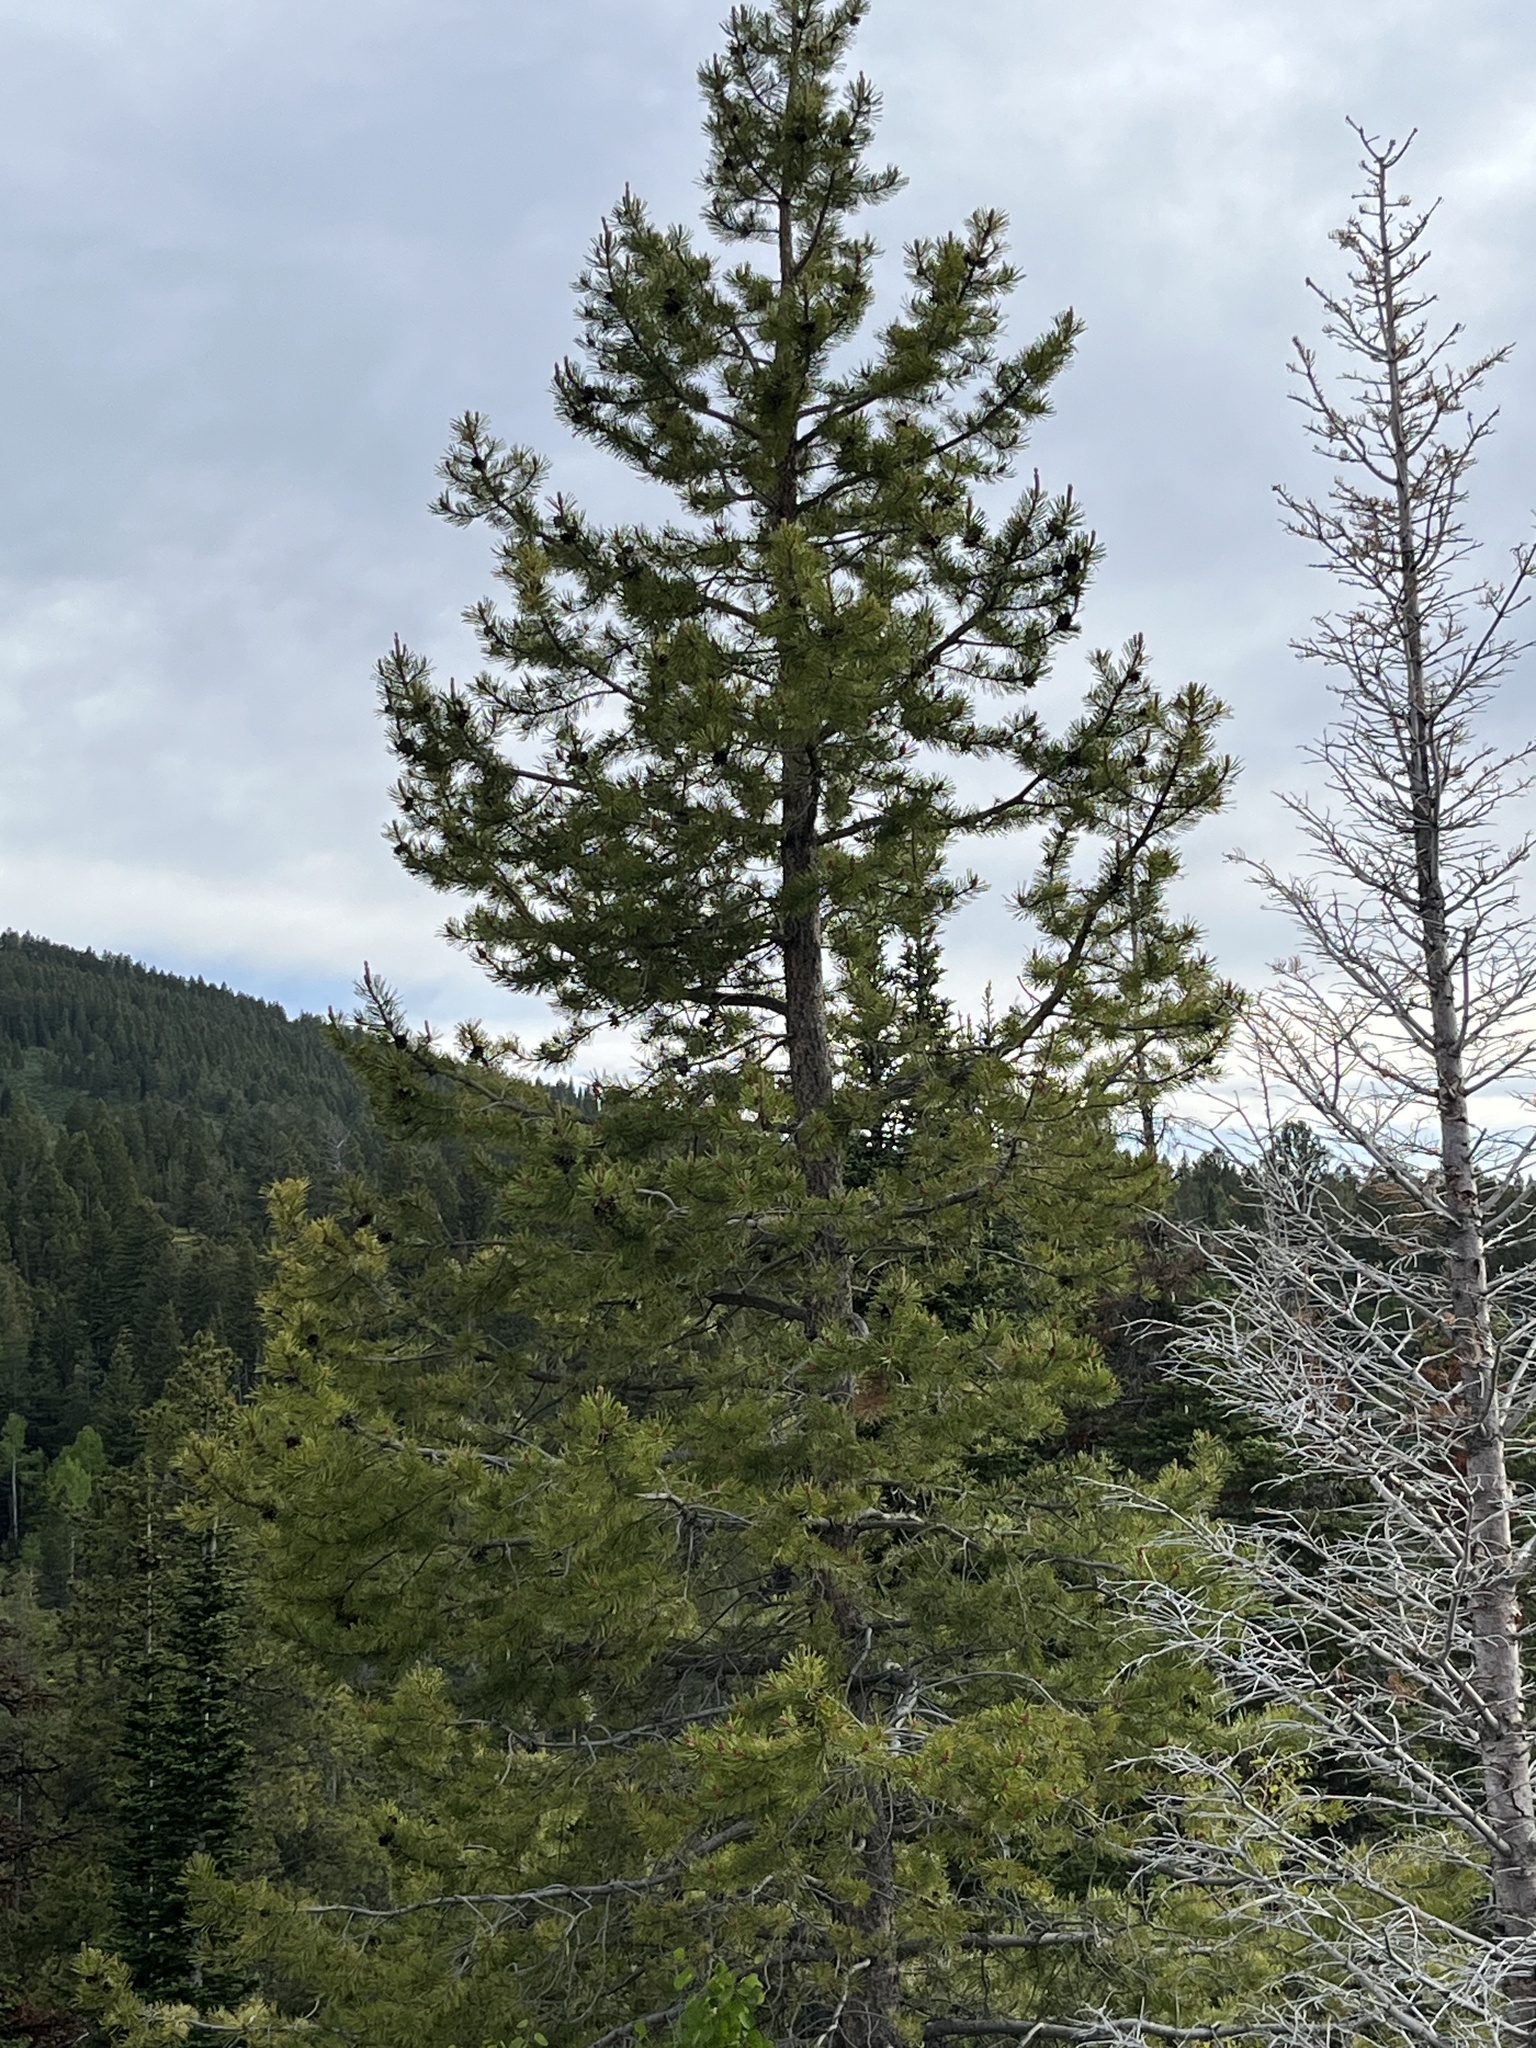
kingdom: Plantae
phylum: Tracheophyta
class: Pinopsida
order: Pinales
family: Pinaceae
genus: Pinus
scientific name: Pinus flexilis
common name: Limber pine
